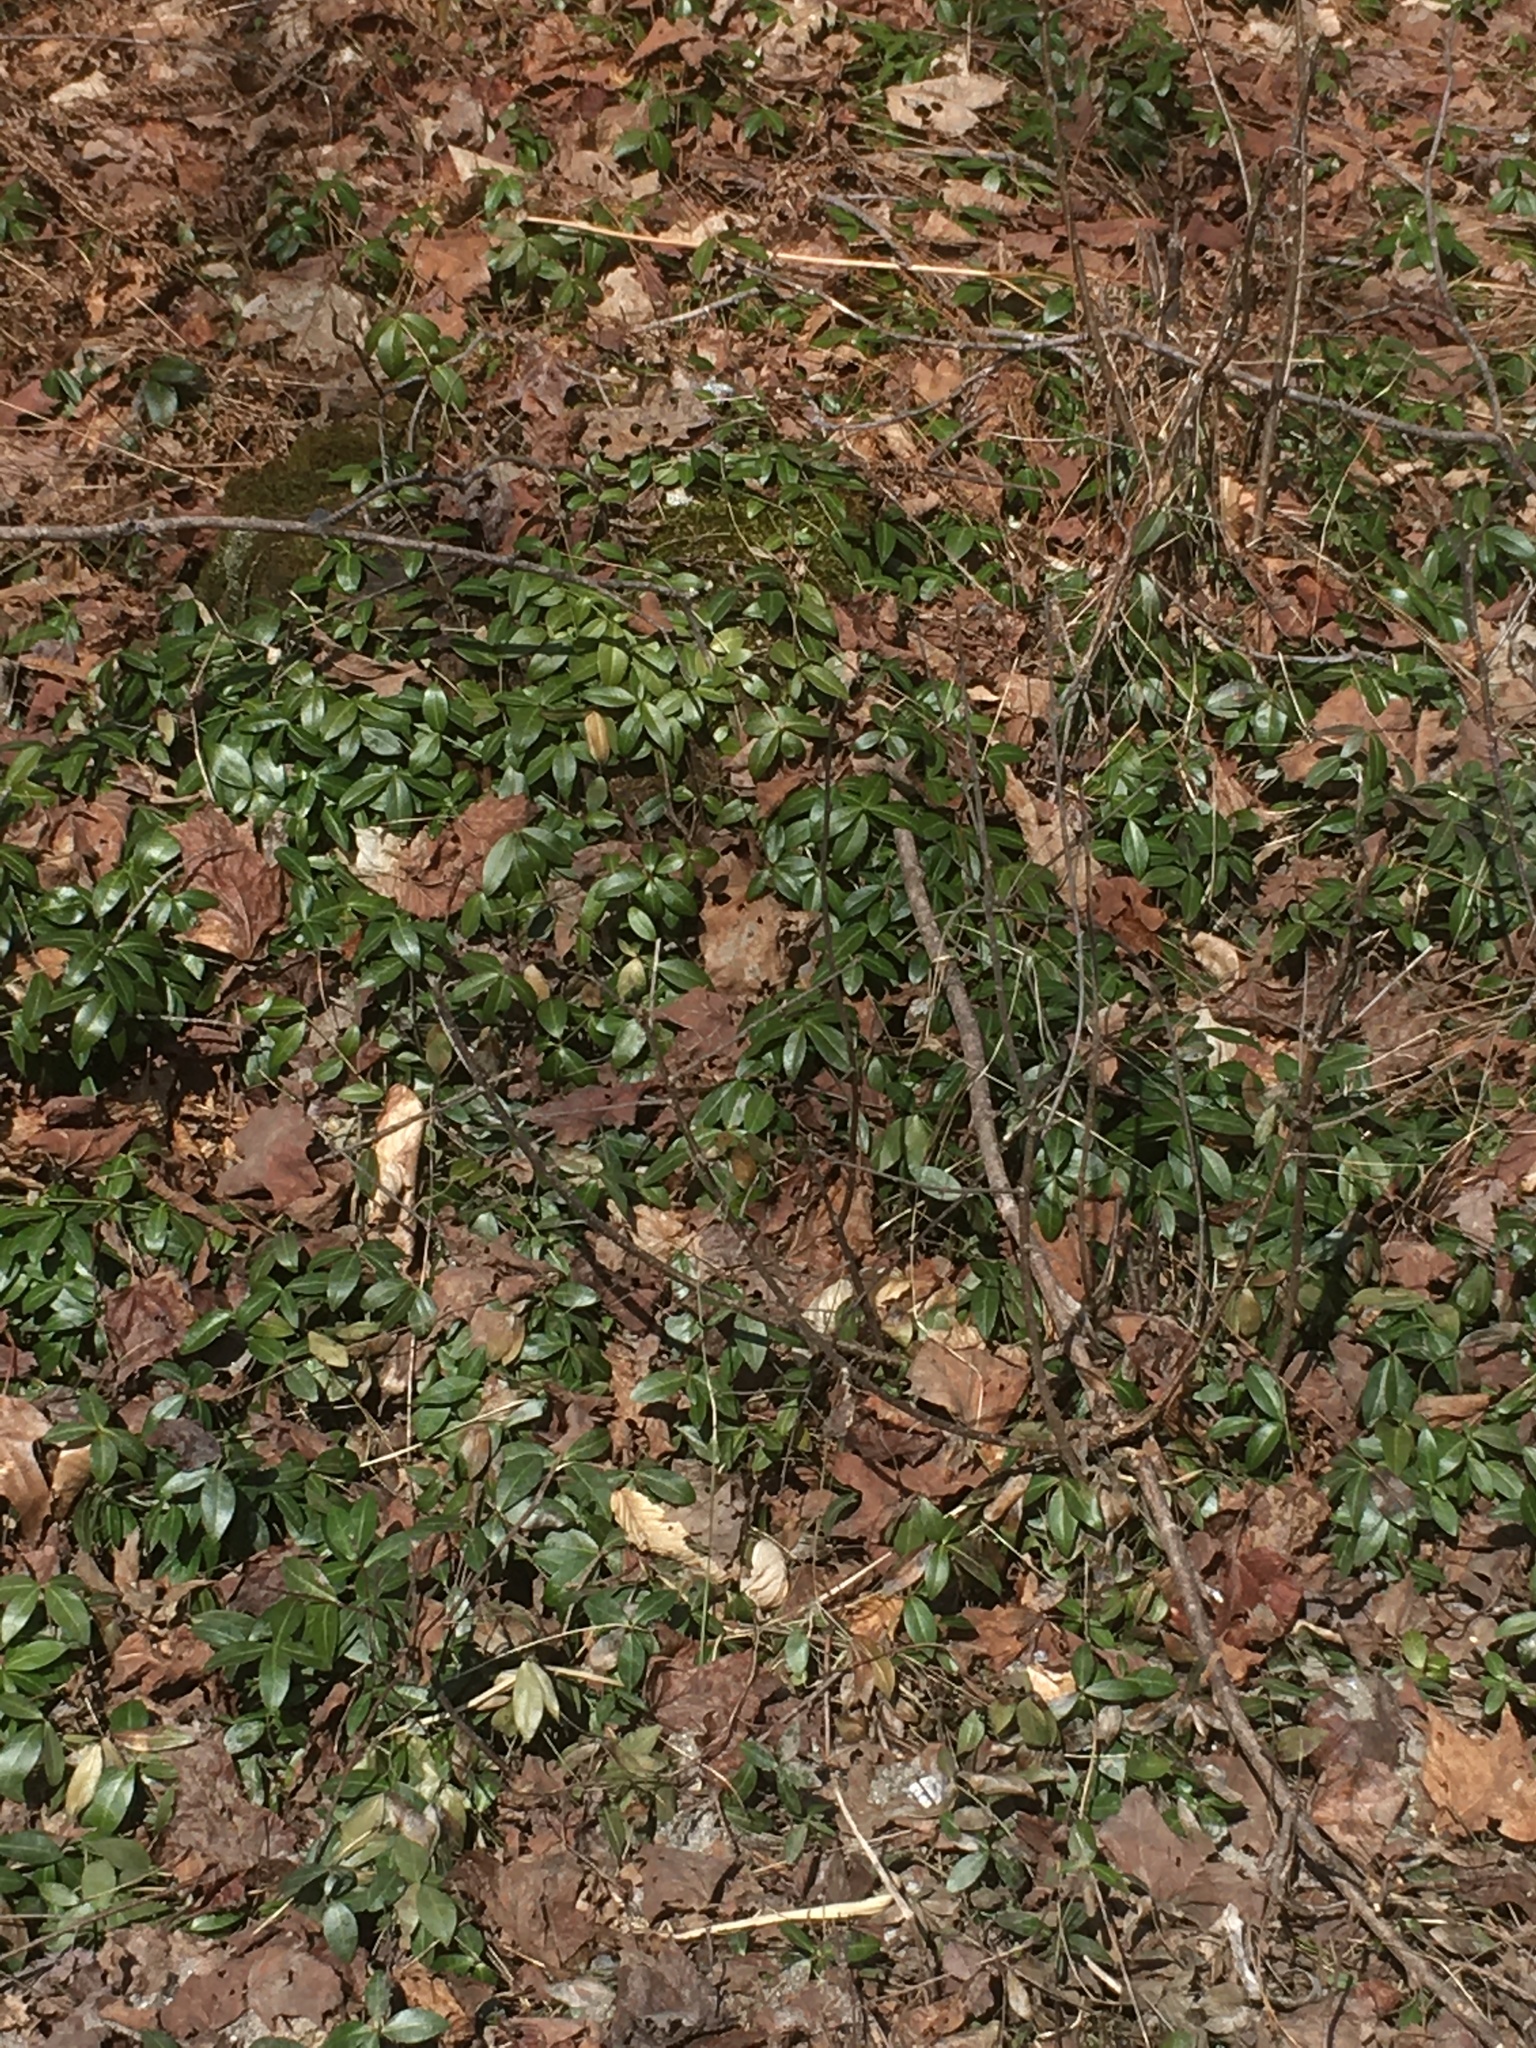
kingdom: Plantae
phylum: Tracheophyta
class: Magnoliopsida
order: Gentianales
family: Apocynaceae
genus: Vinca
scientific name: Vinca minor
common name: Lesser periwinkle
